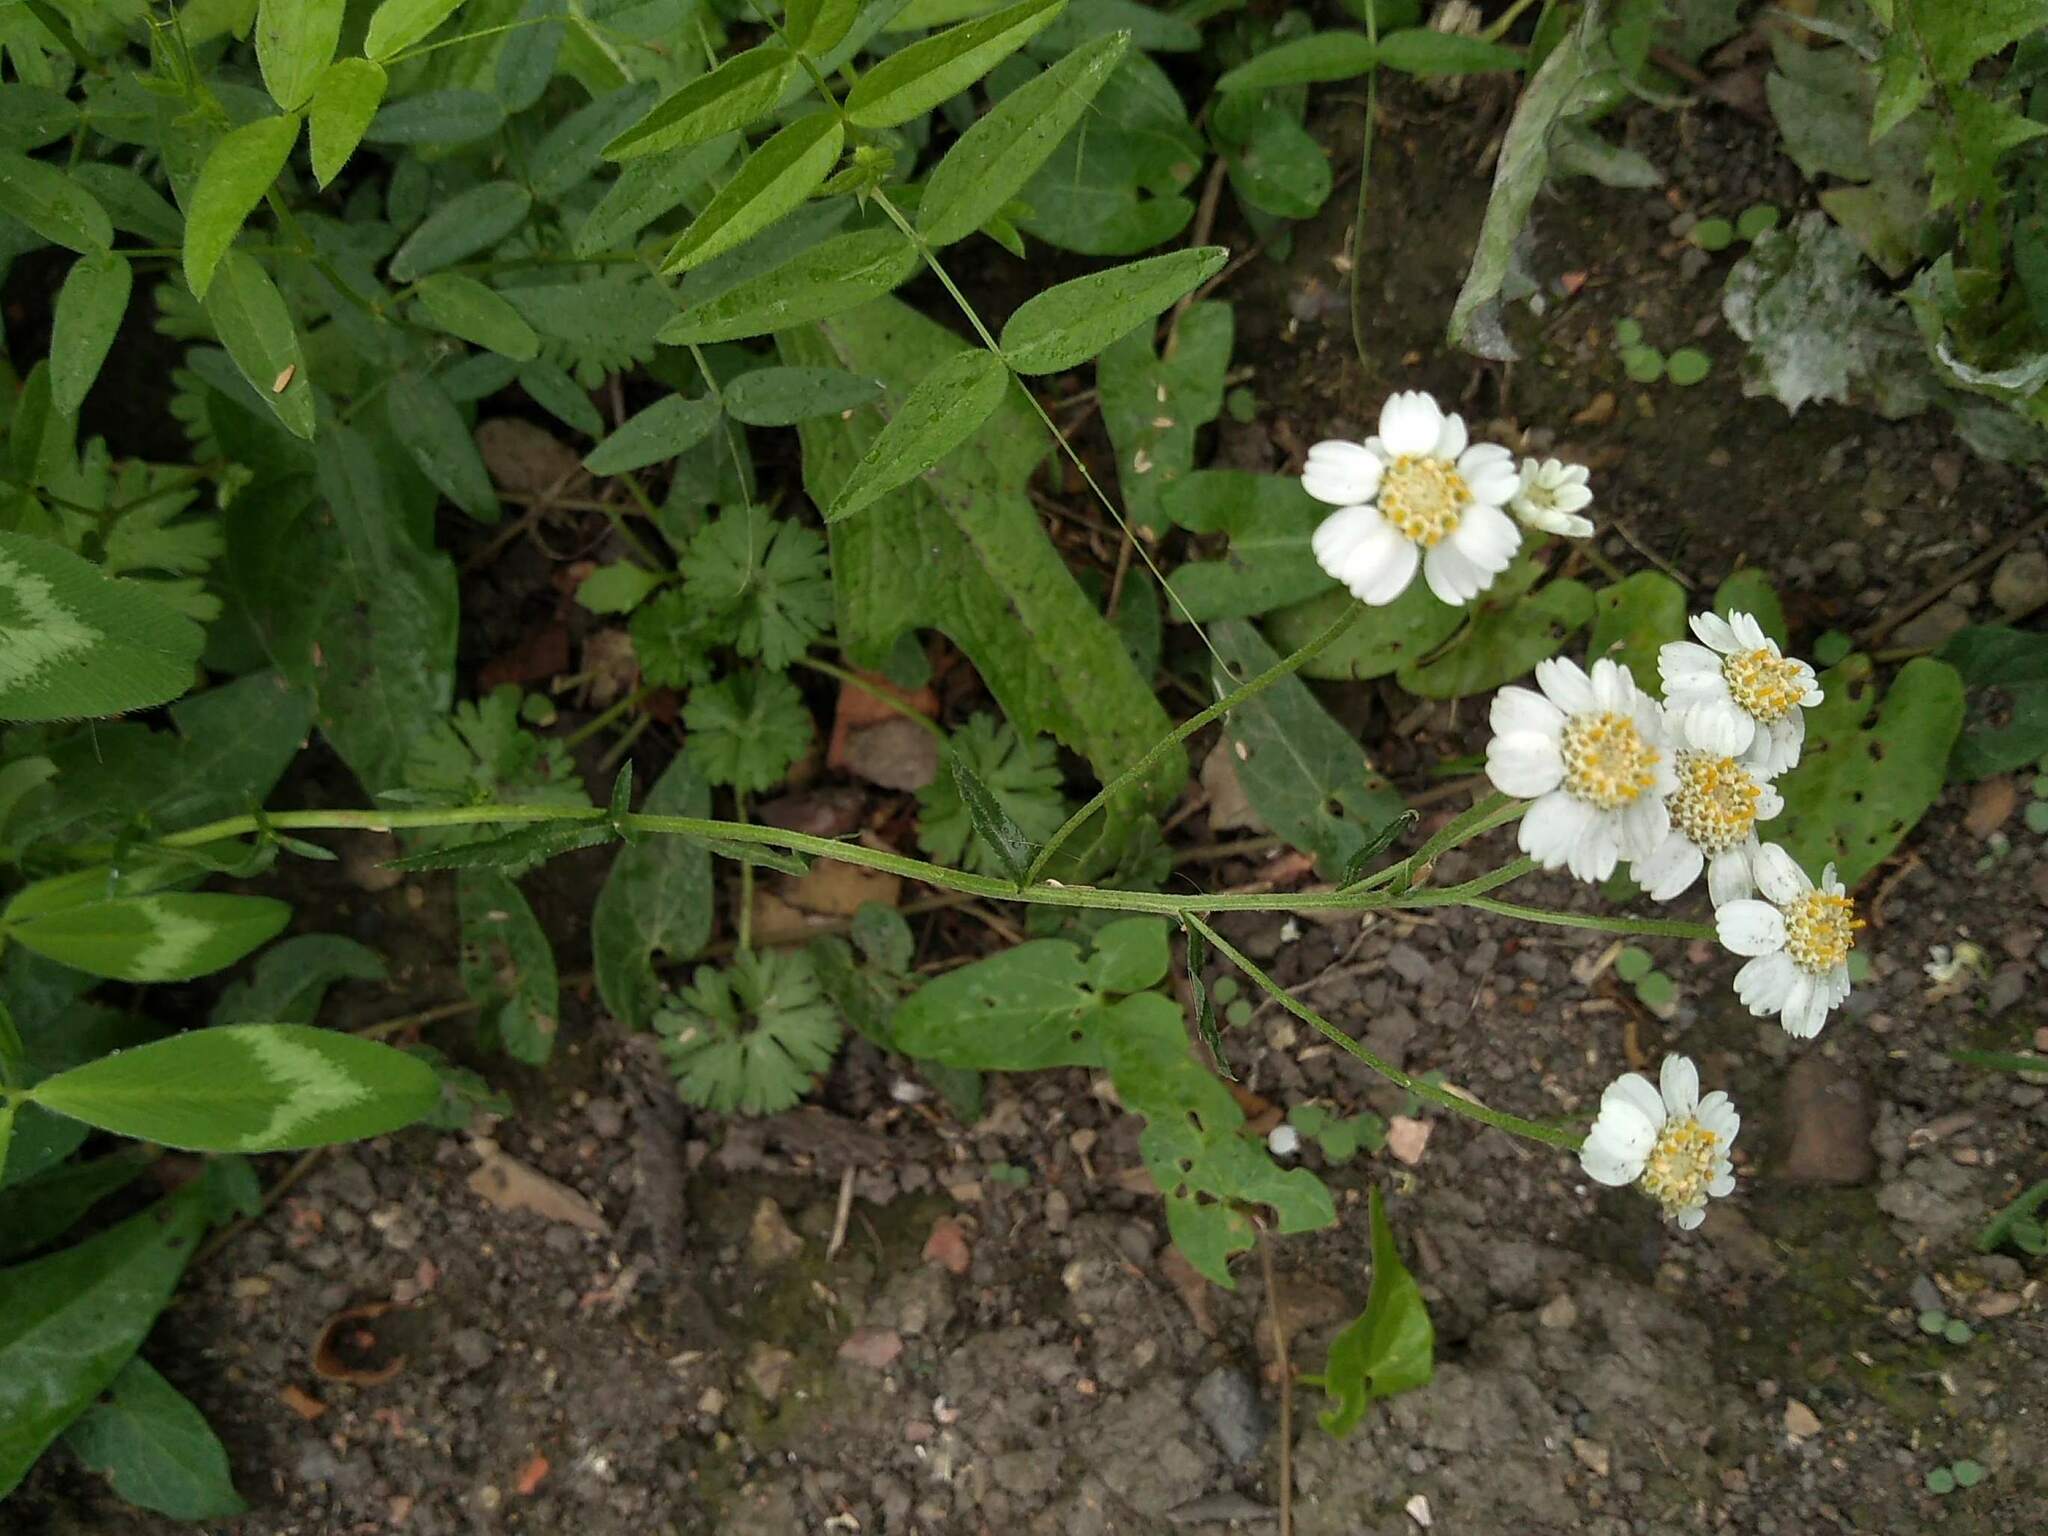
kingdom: Plantae
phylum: Tracheophyta
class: Magnoliopsida
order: Asterales
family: Asteraceae
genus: Achillea
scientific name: Achillea ptarmica
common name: Sneezeweed
